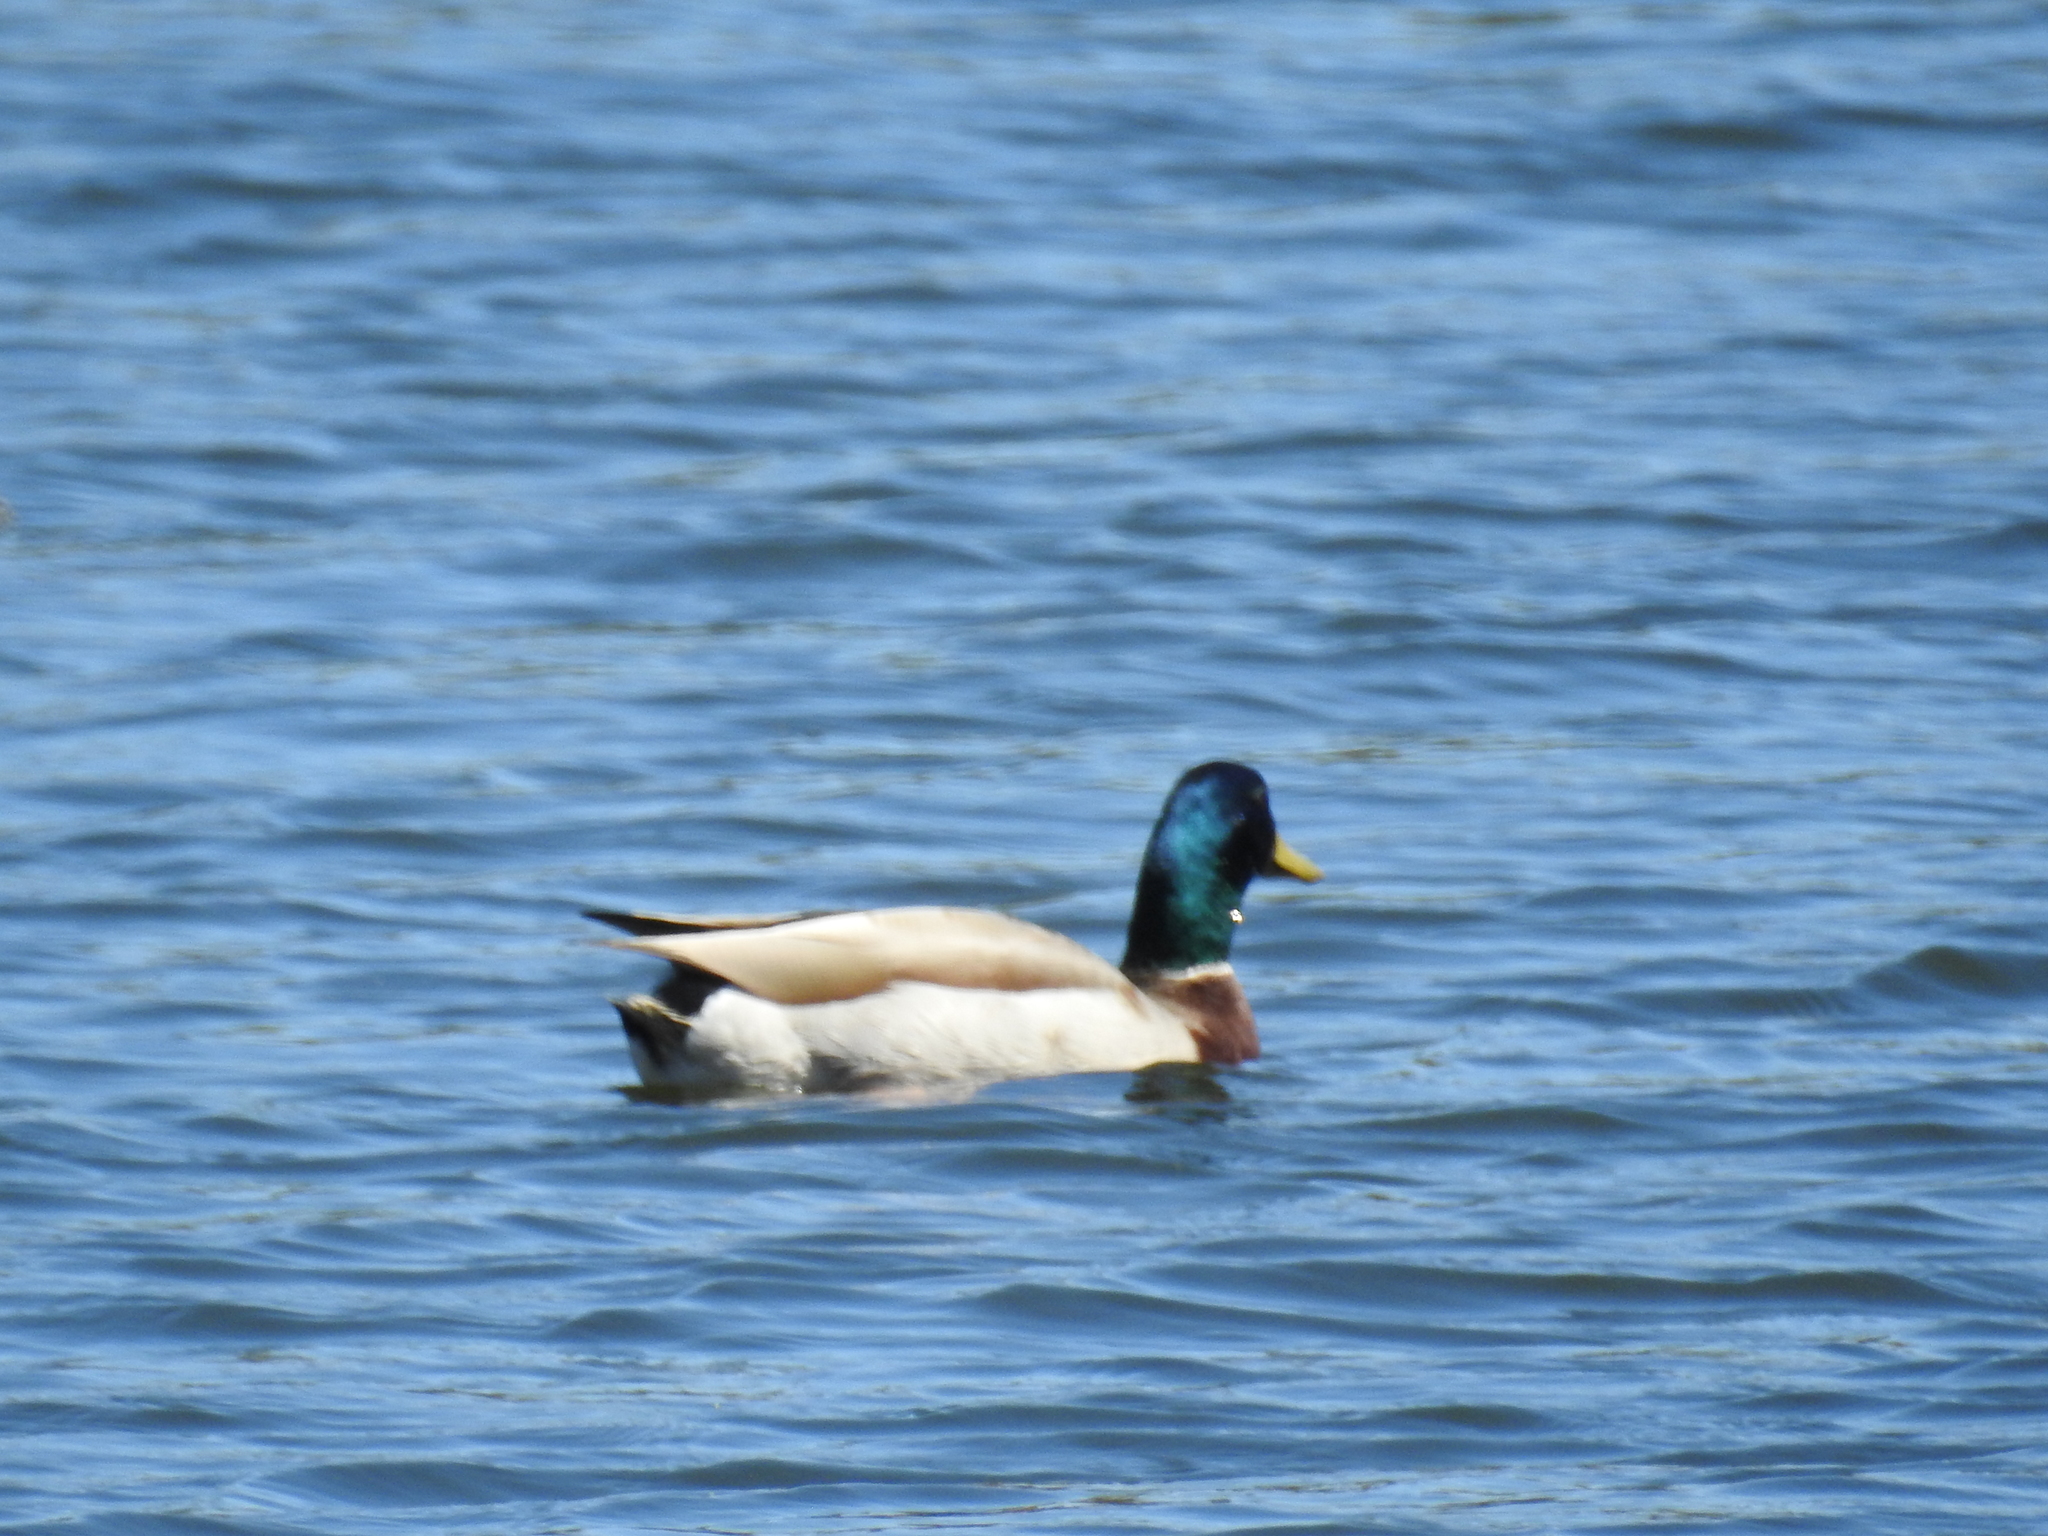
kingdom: Animalia
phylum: Chordata
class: Aves
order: Anseriformes
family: Anatidae
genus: Anas
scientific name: Anas platyrhynchos
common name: Mallard
